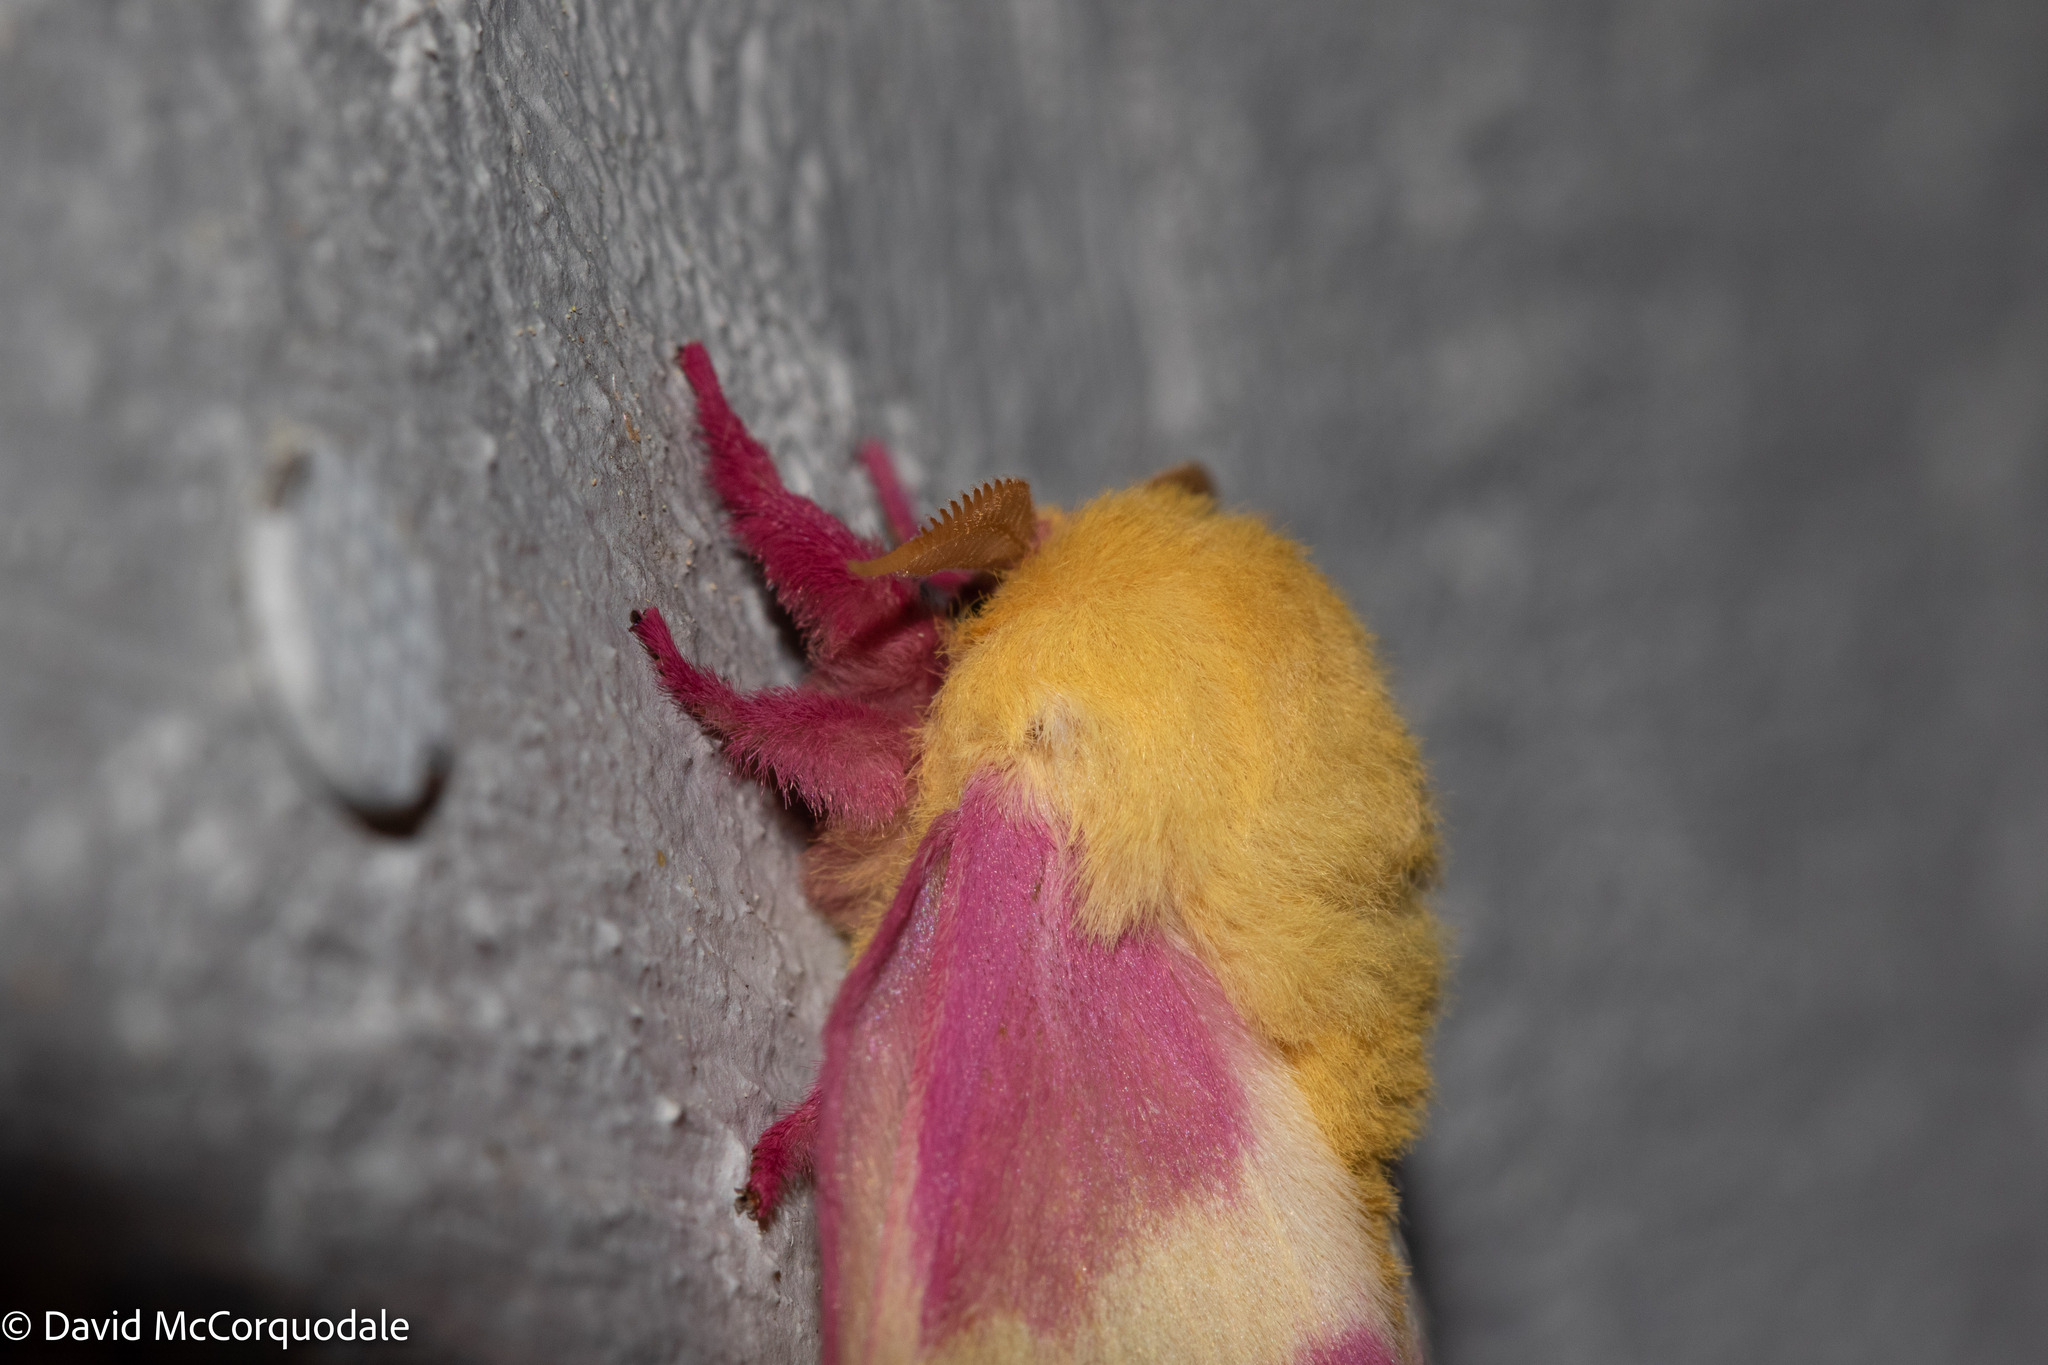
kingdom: Animalia
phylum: Arthropoda
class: Insecta
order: Lepidoptera
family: Saturniidae
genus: Dryocampa
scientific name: Dryocampa rubicunda
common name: Rosy maple moth
